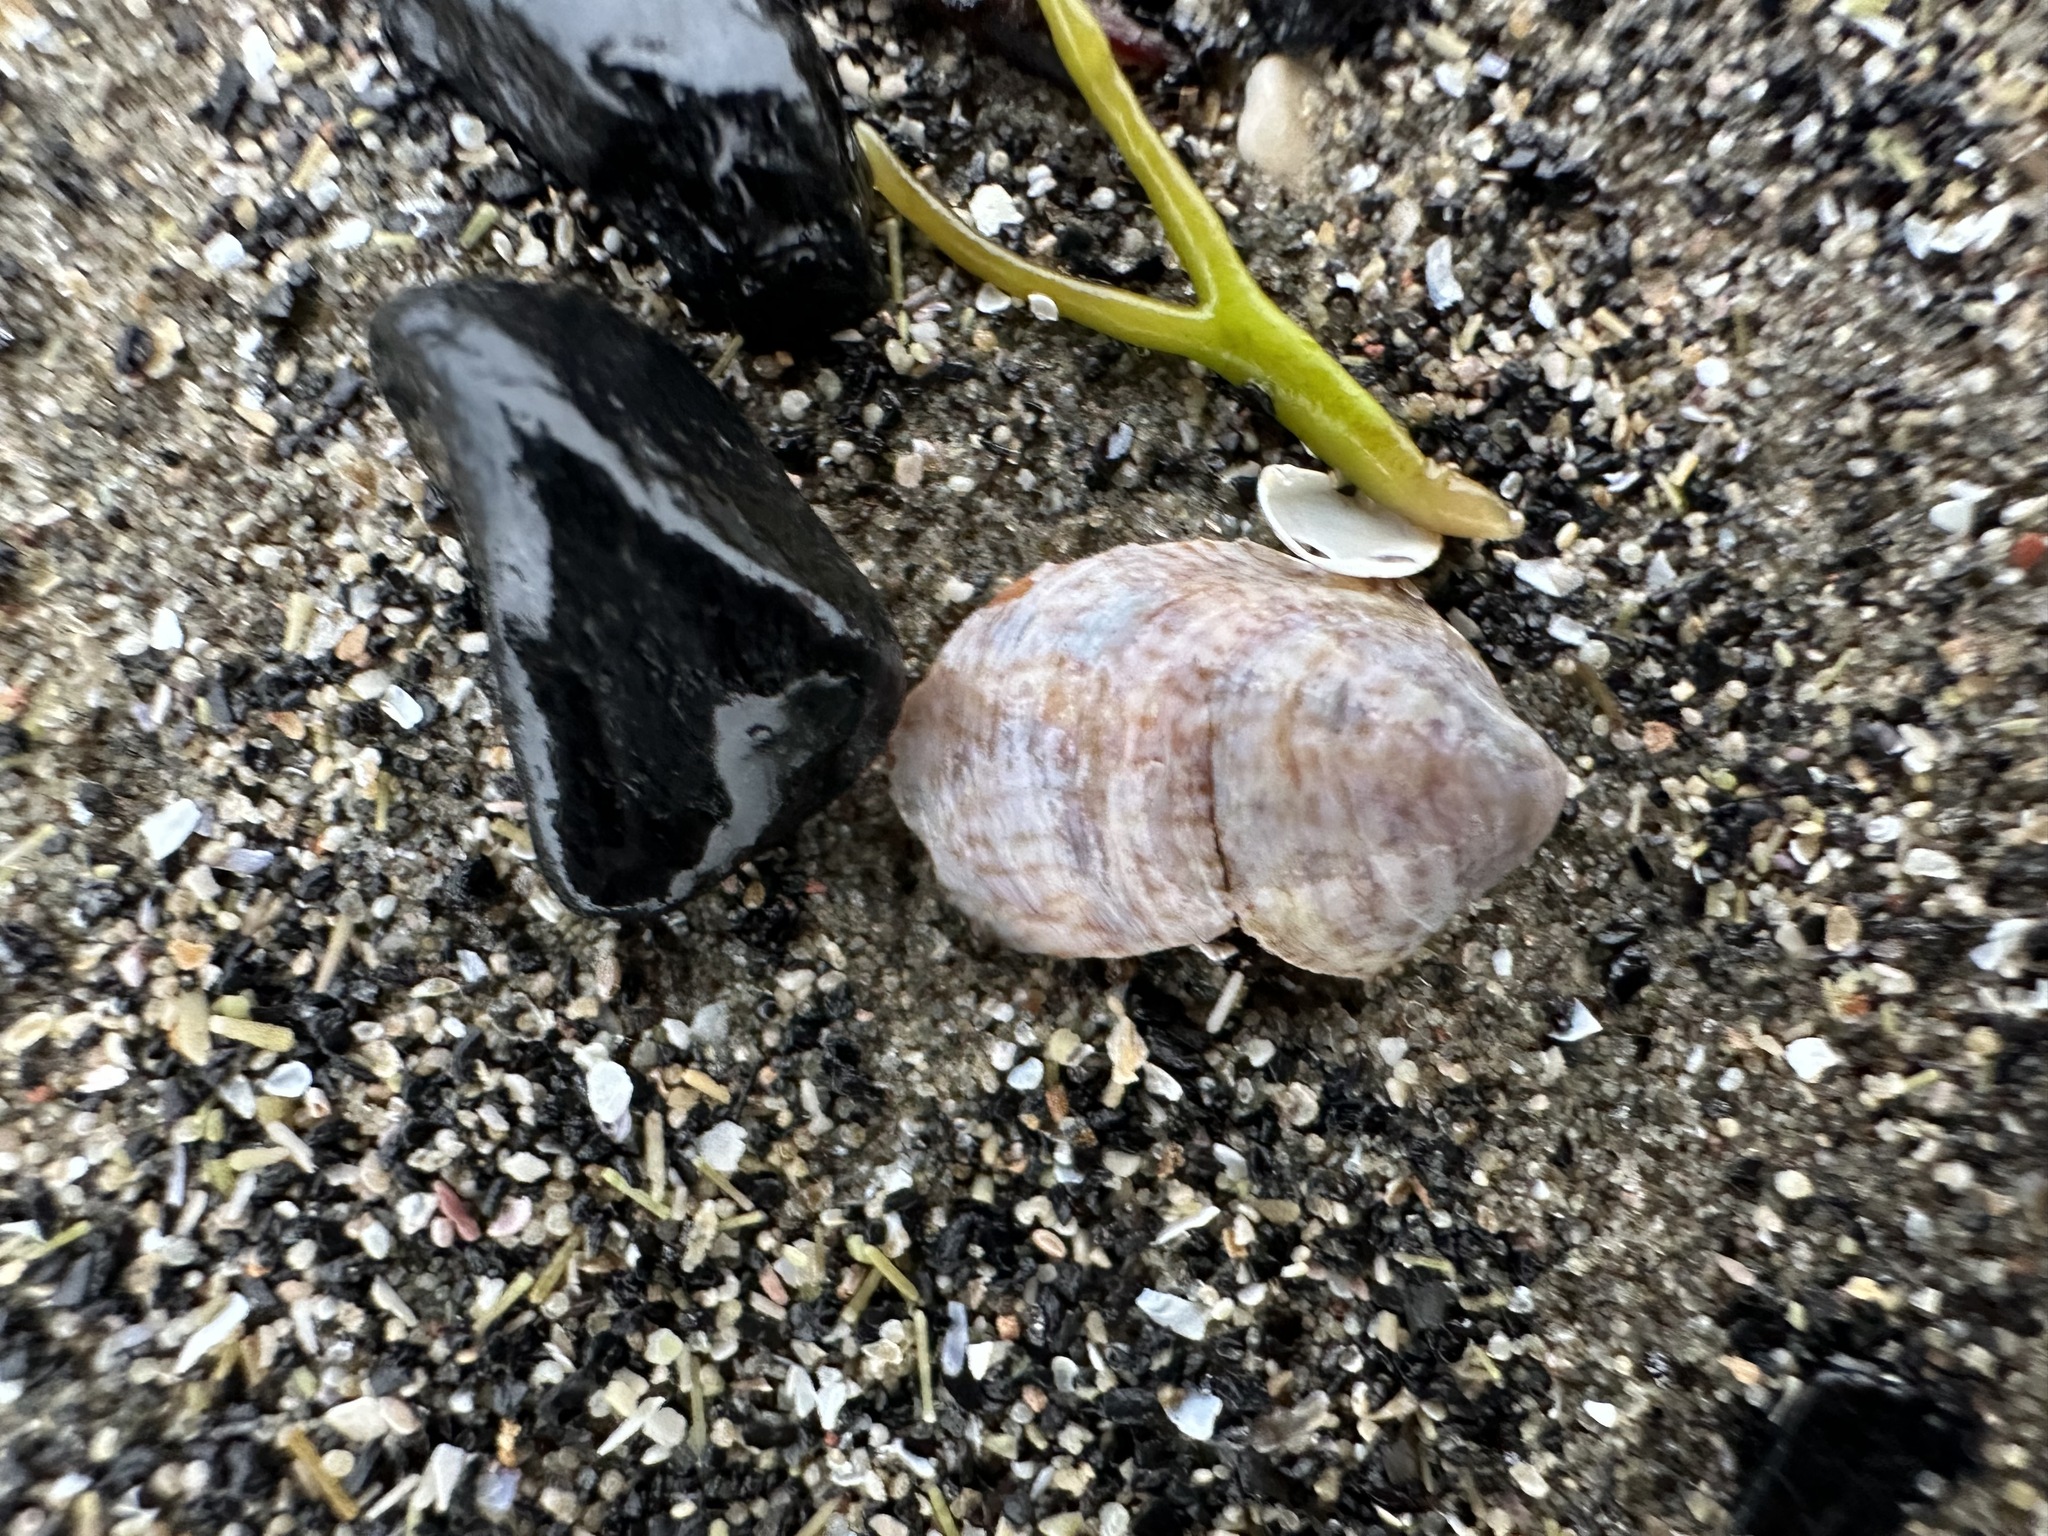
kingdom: Animalia
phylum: Mollusca
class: Gastropoda
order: Littorinimorpha
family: Calyptraeidae
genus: Crepidula
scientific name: Crepidula fornicata
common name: Slipper limpet
